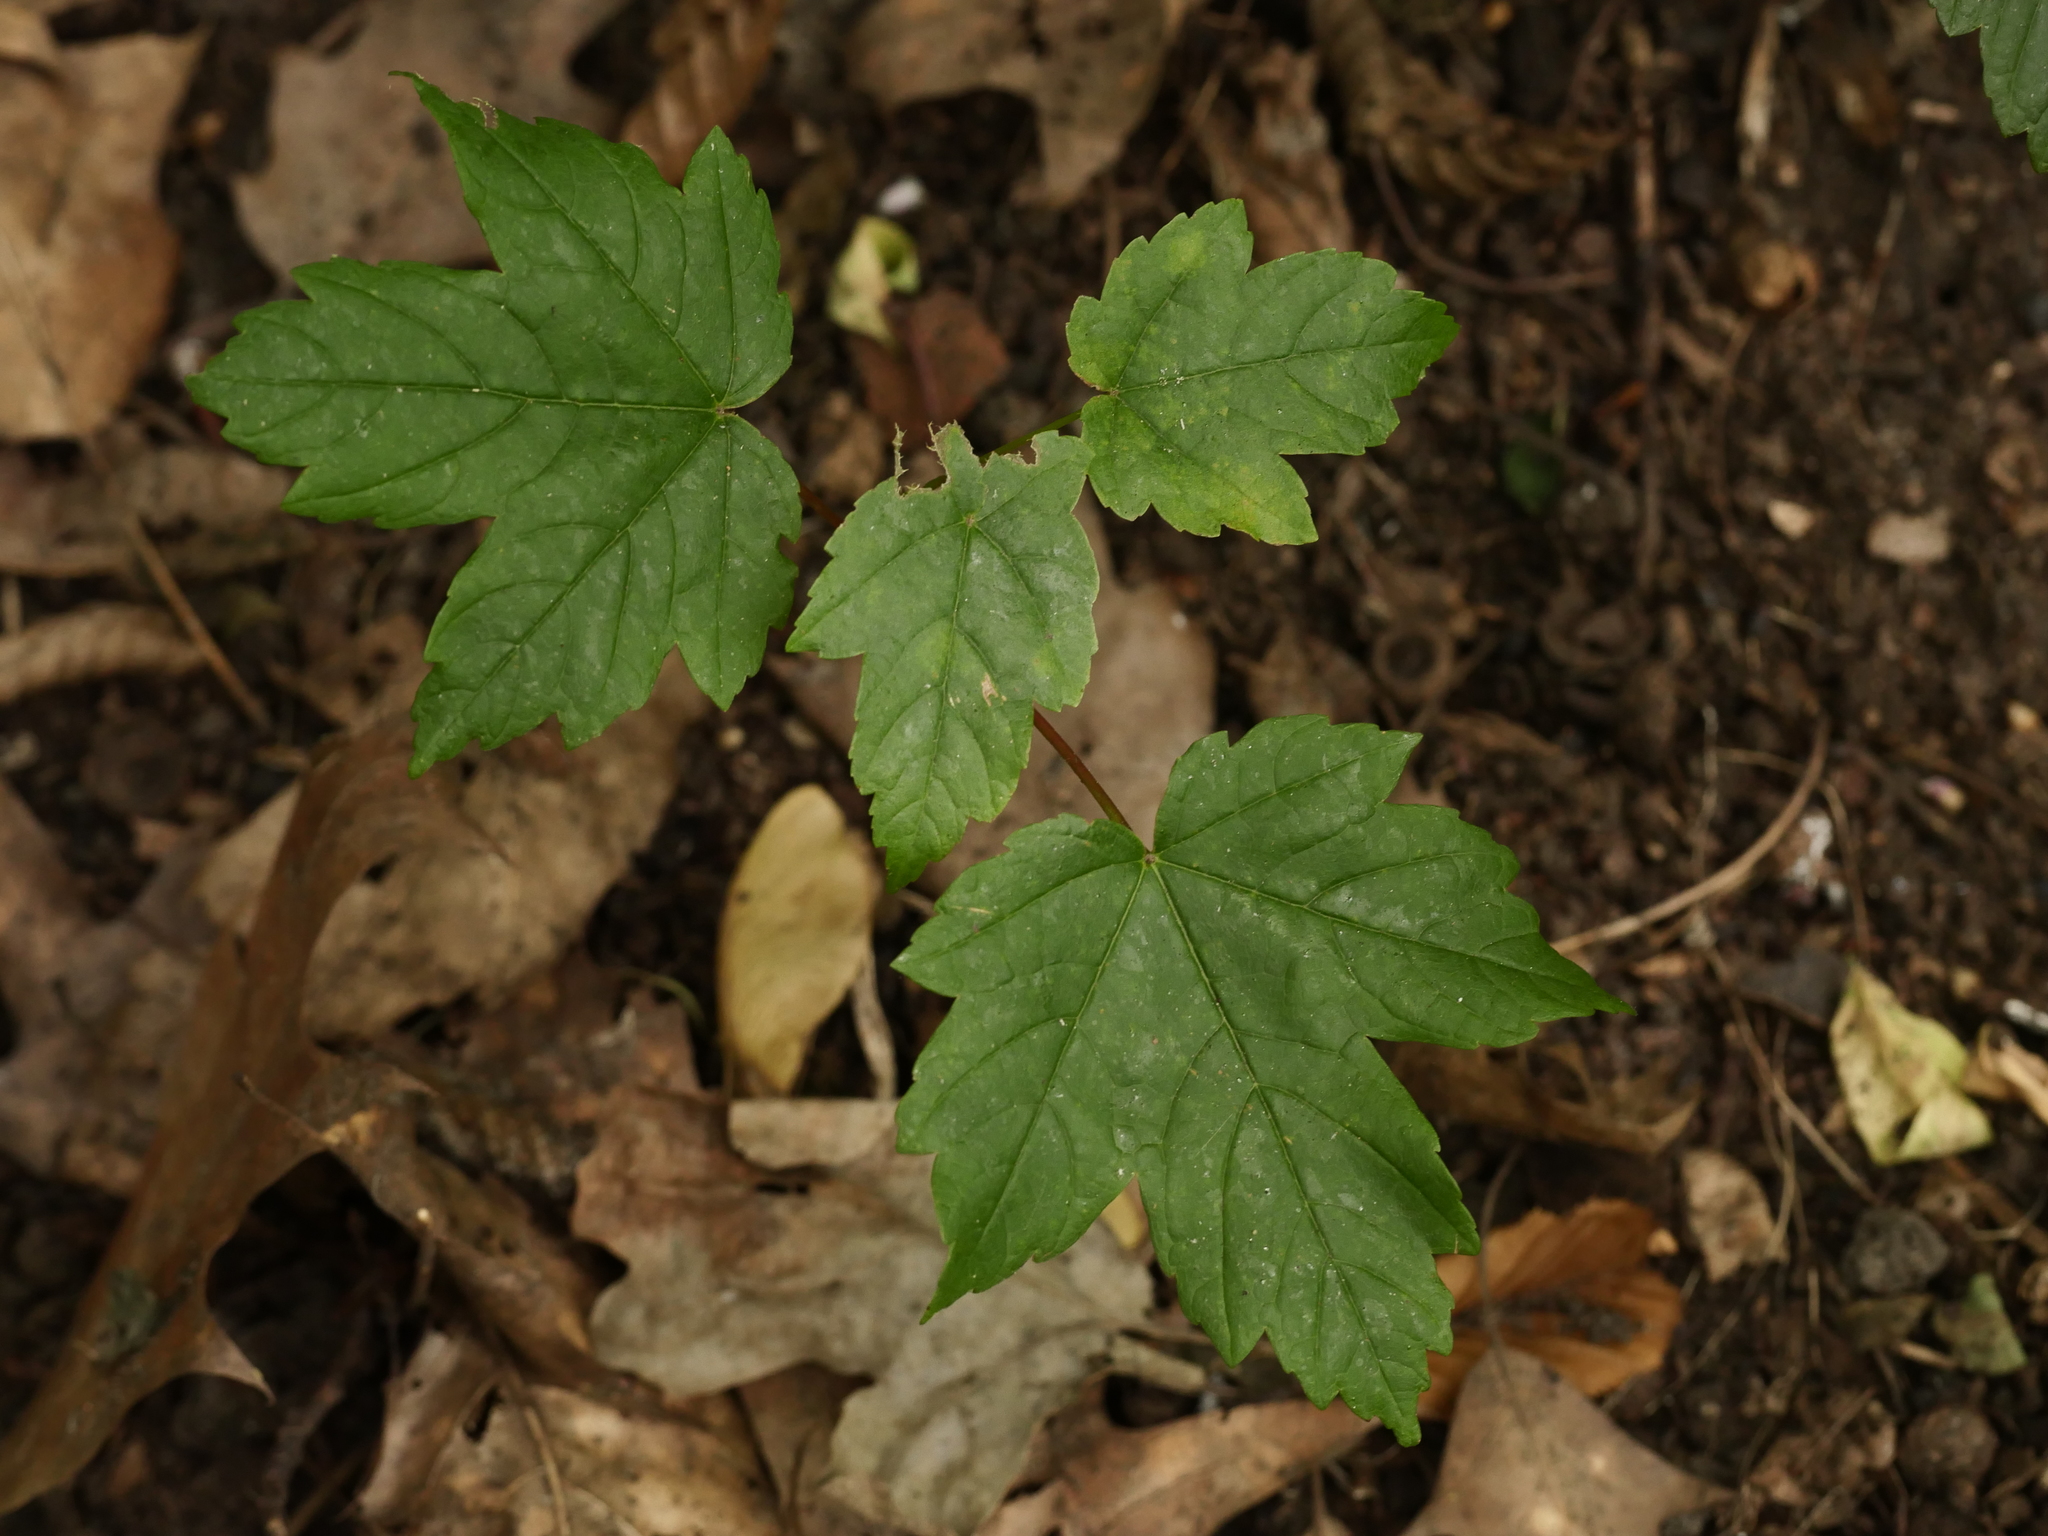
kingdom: Plantae
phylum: Tracheophyta
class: Magnoliopsida
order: Sapindales
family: Sapindaceae
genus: Acer
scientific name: Acer pseudoplatanus
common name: Sycamore
